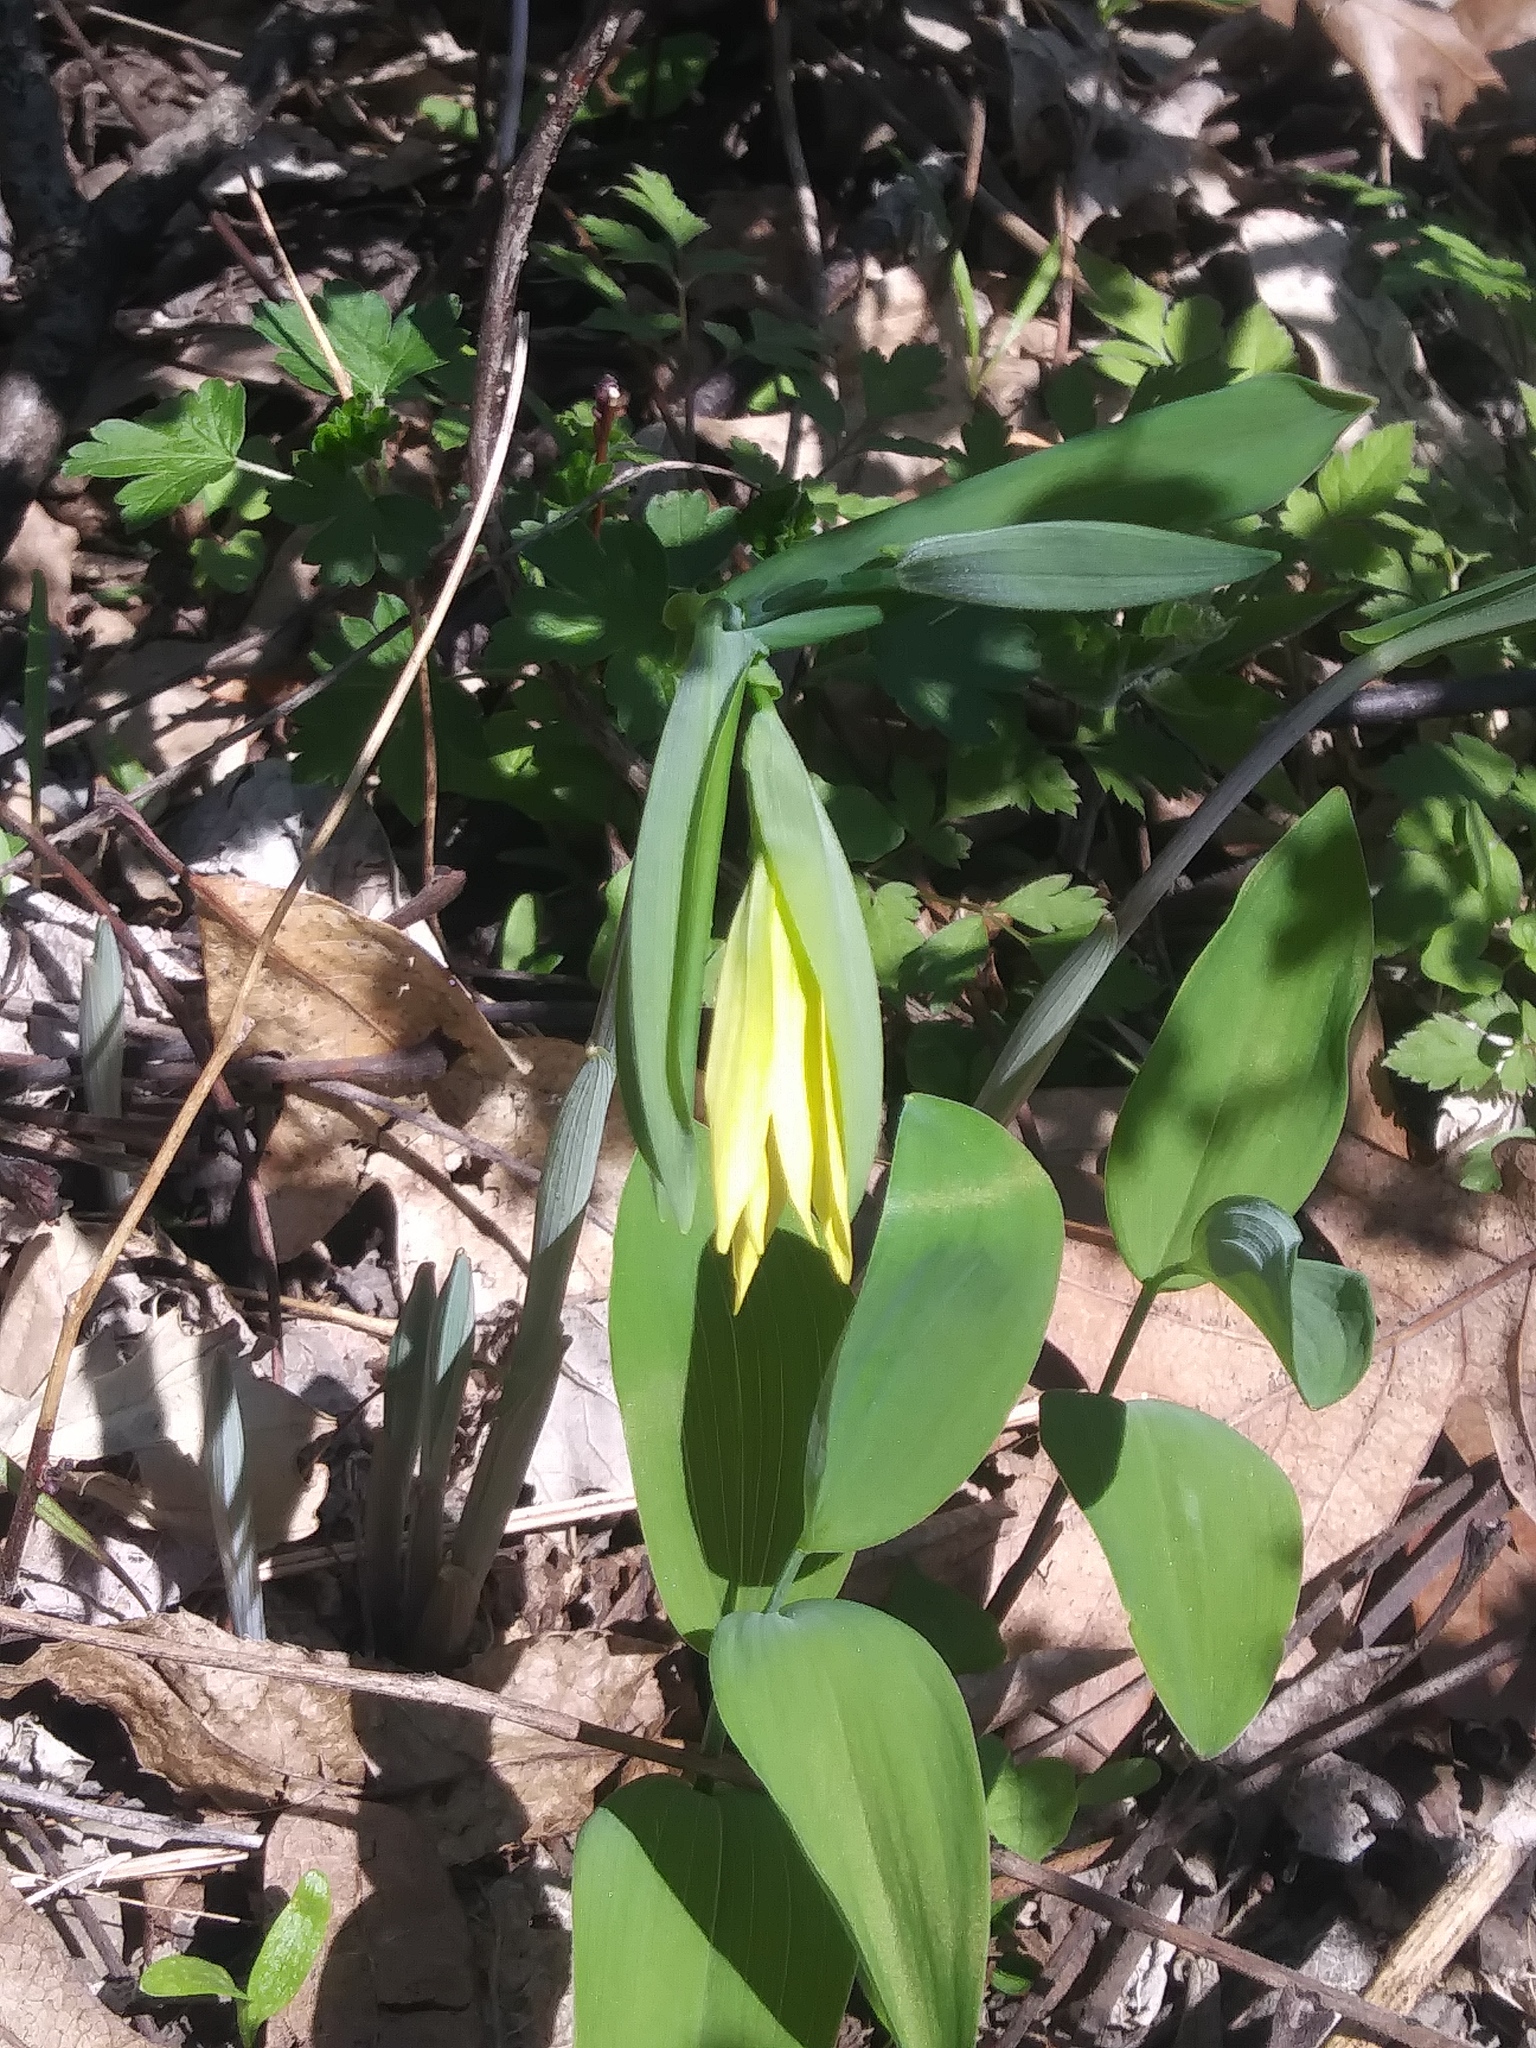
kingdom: Plantae
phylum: Tracheophyta
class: Liliopsida
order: Liliales
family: Colchicaceae
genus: Uvularia
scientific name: Uvularia grandiflora
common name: Bellwort
